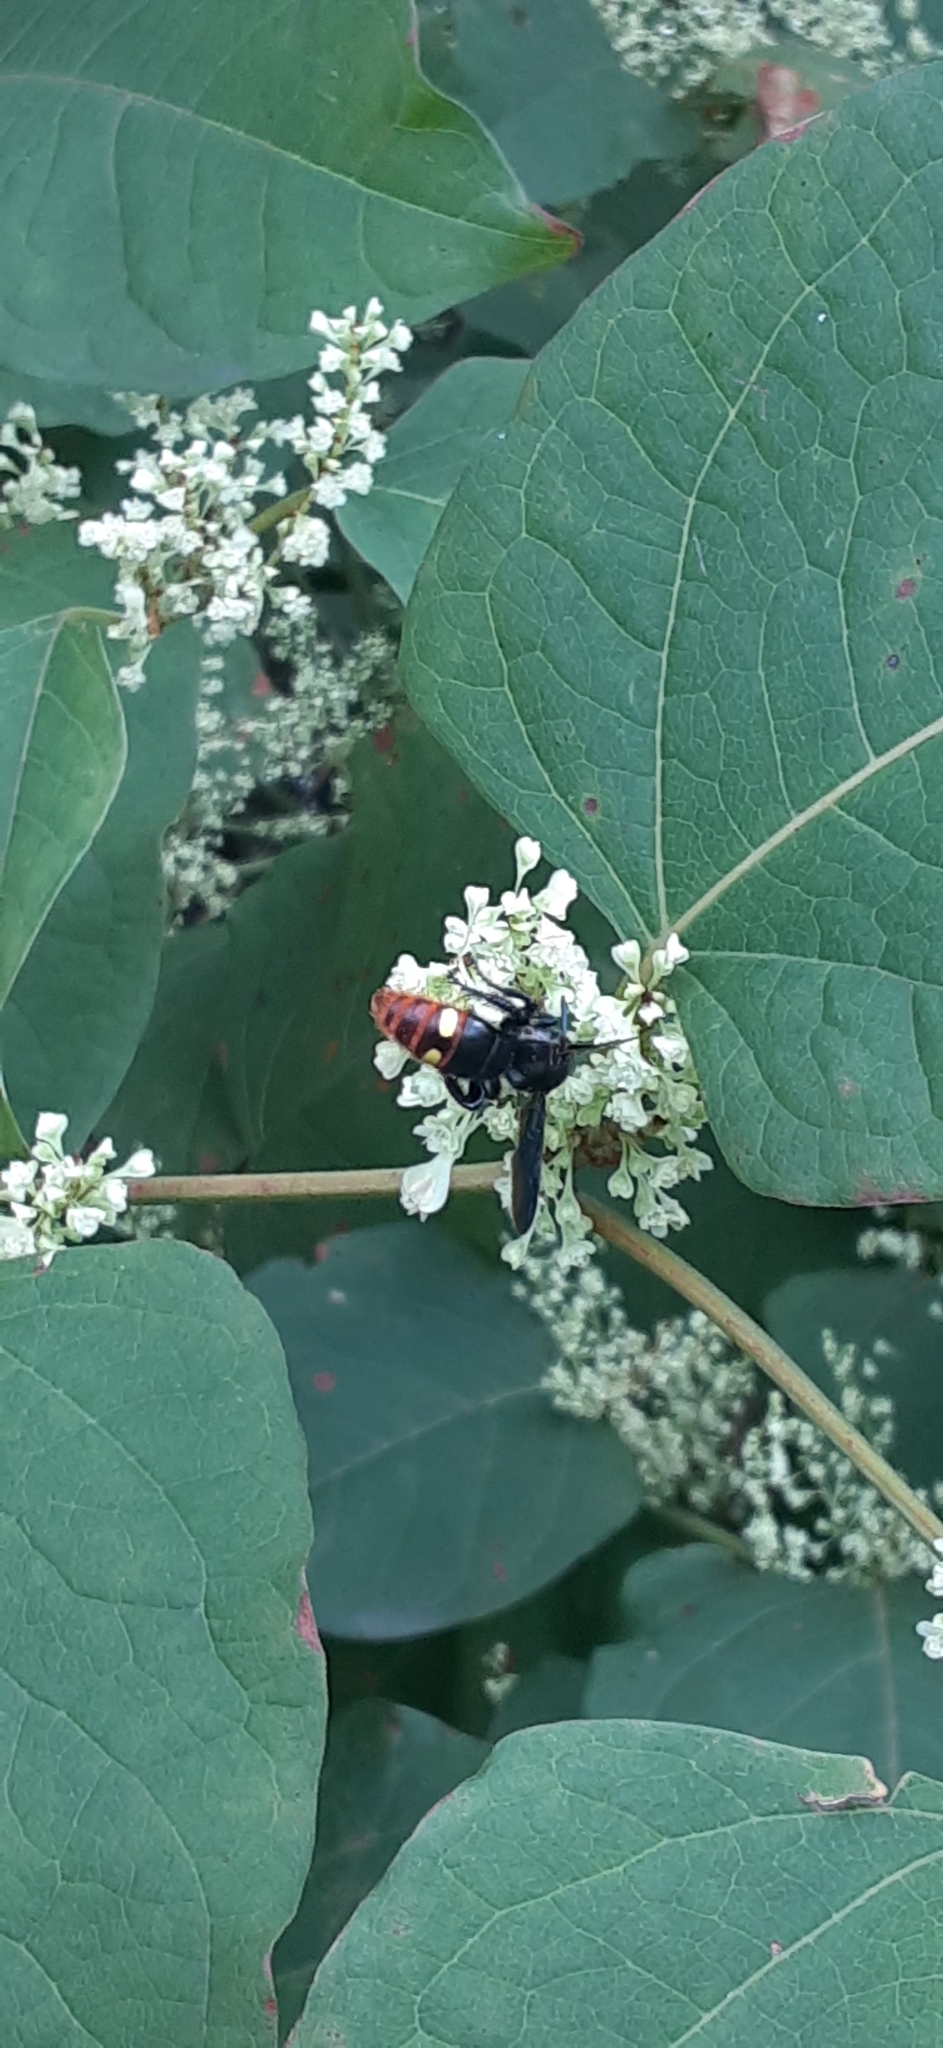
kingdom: Animalia
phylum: Arthropoda
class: Insecta
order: Hymenoptera
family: Scoliidae
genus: Scolia
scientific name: Scolia dubia
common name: Blue-winged scoliid wasp
